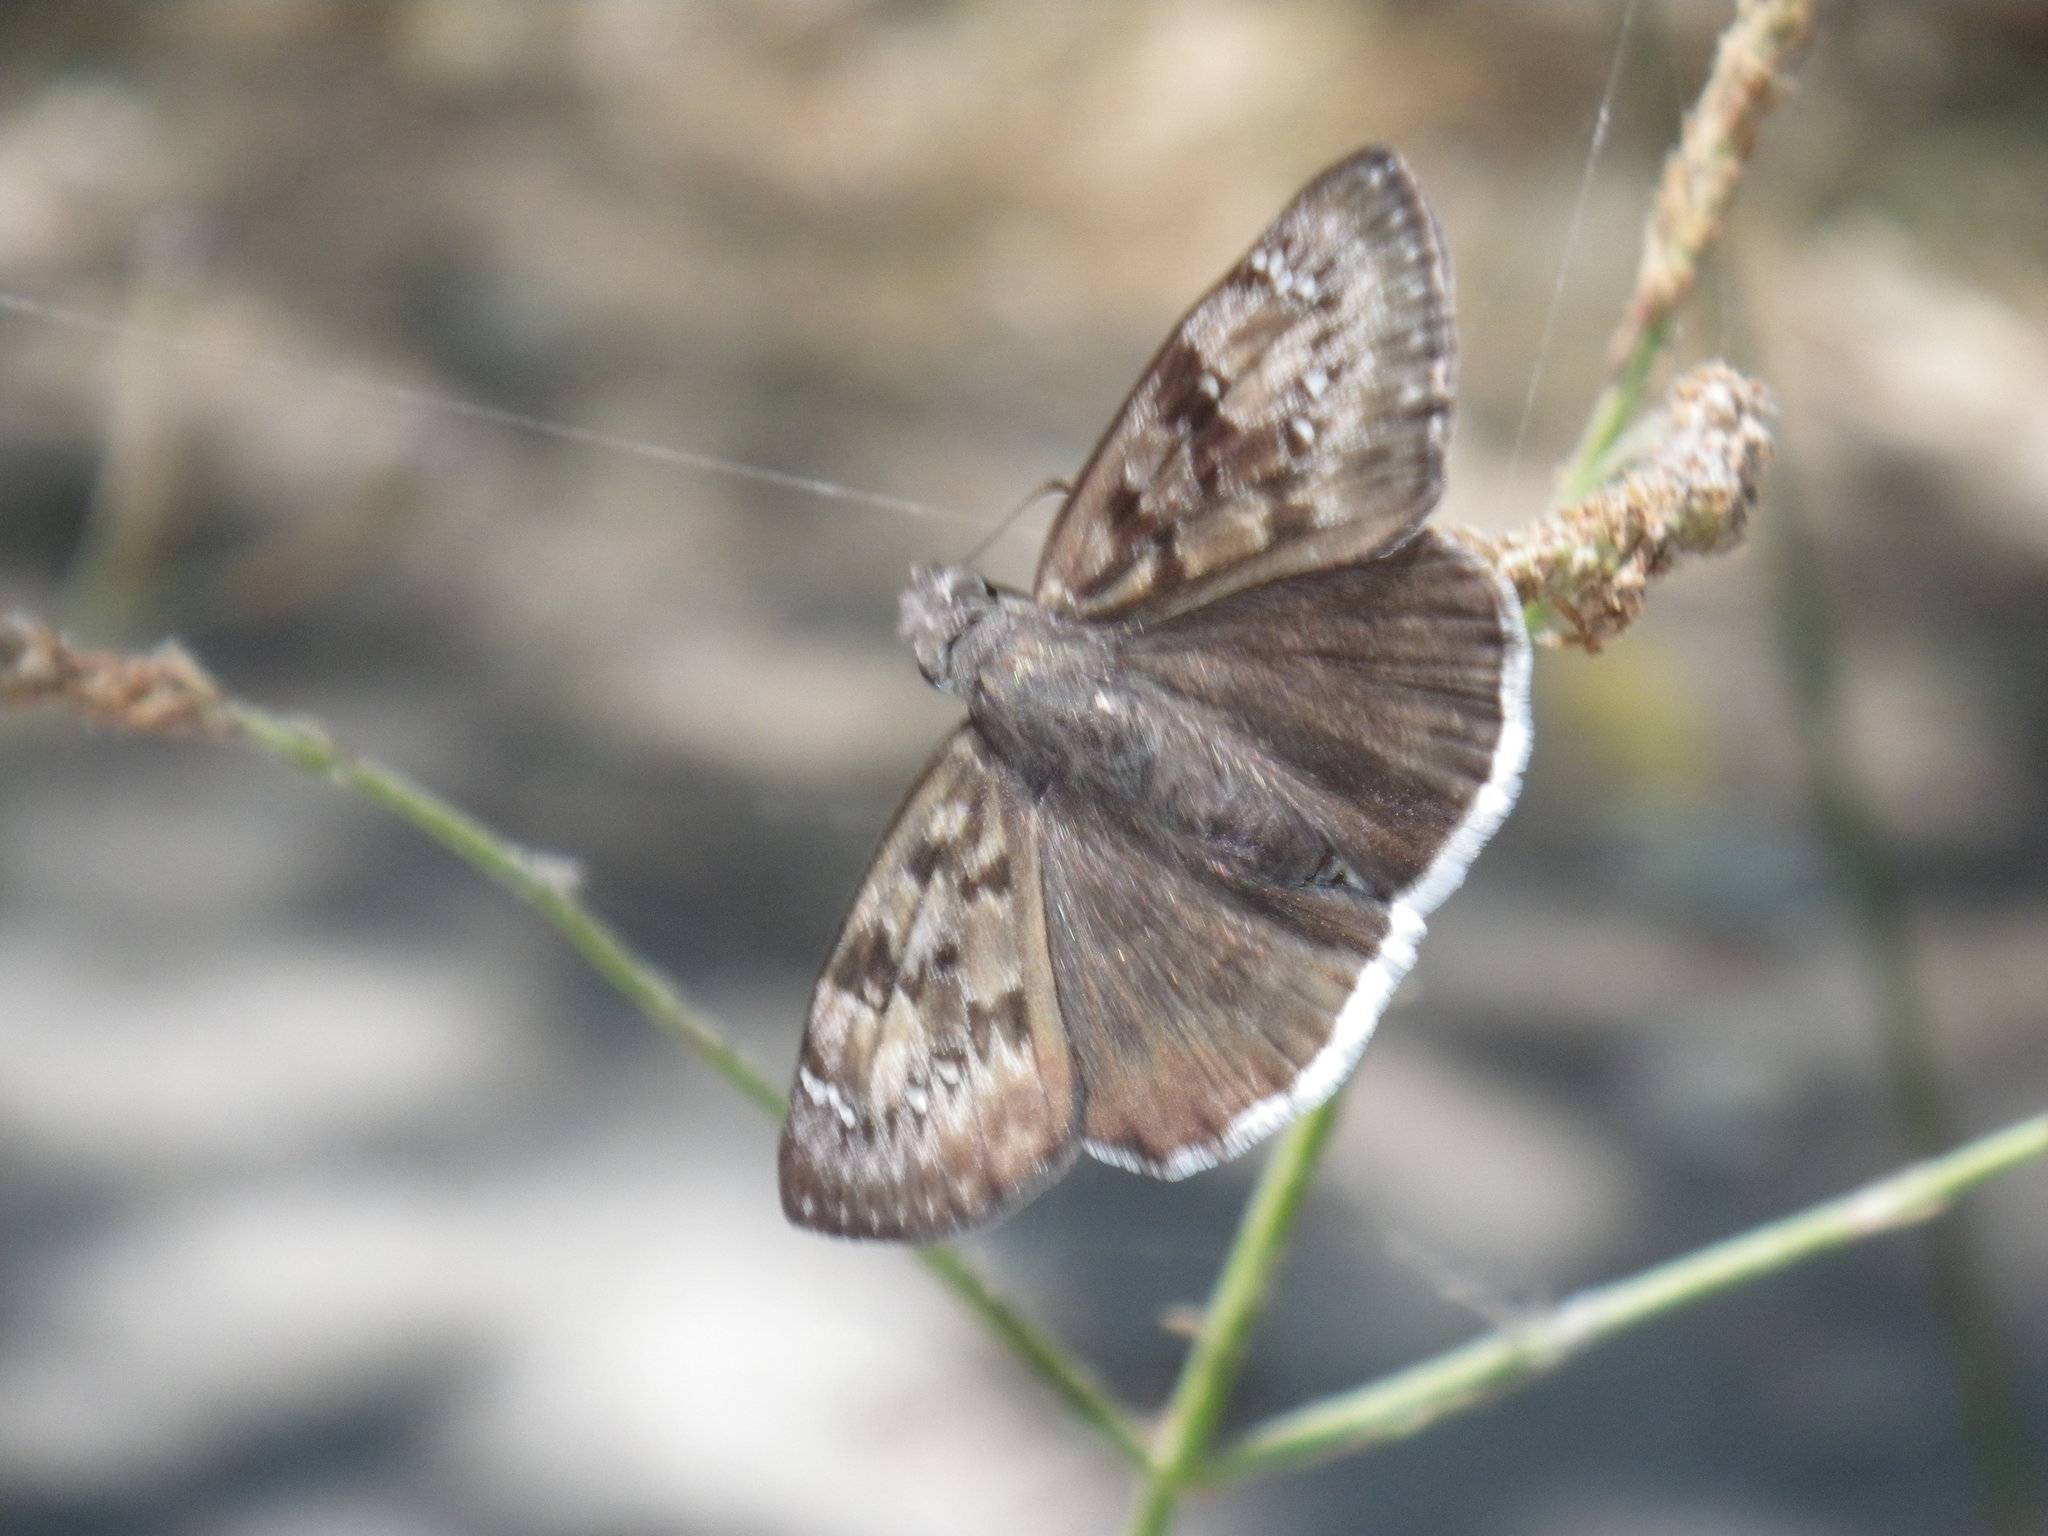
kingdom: Animalia
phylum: Arthropoda
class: Insecta
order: Lepidoptera
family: Hesperiidae
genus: Erynnis
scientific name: Erynnis tristis
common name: Mournful duskywing
